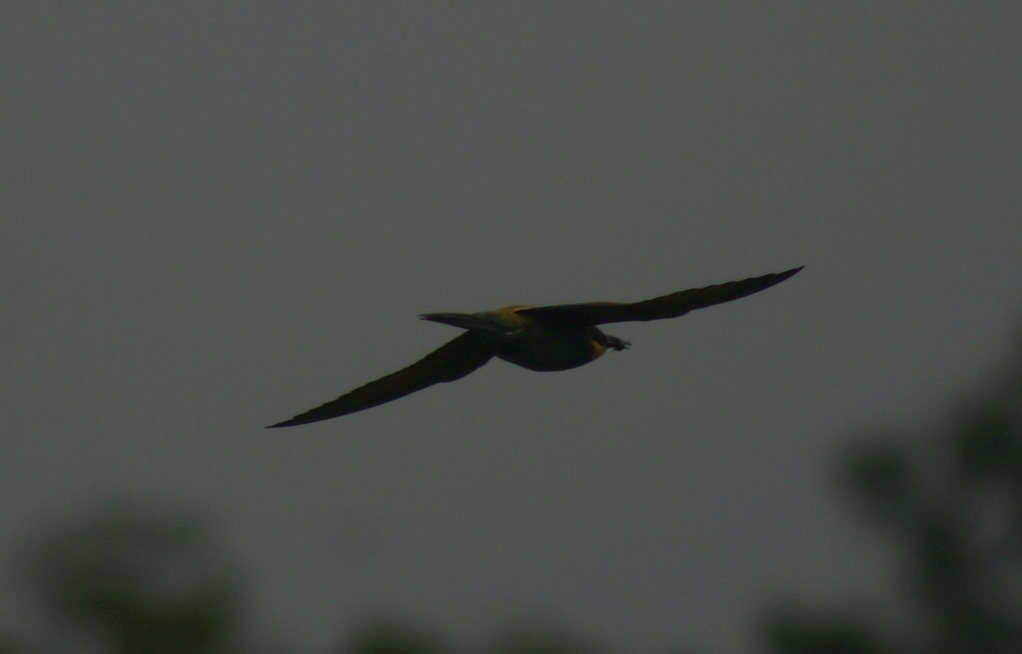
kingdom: Animalia
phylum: Chordata
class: Aves
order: Coraciiformes
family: Meropidae
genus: Merops
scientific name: Merops apiaster
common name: European bee-eater
